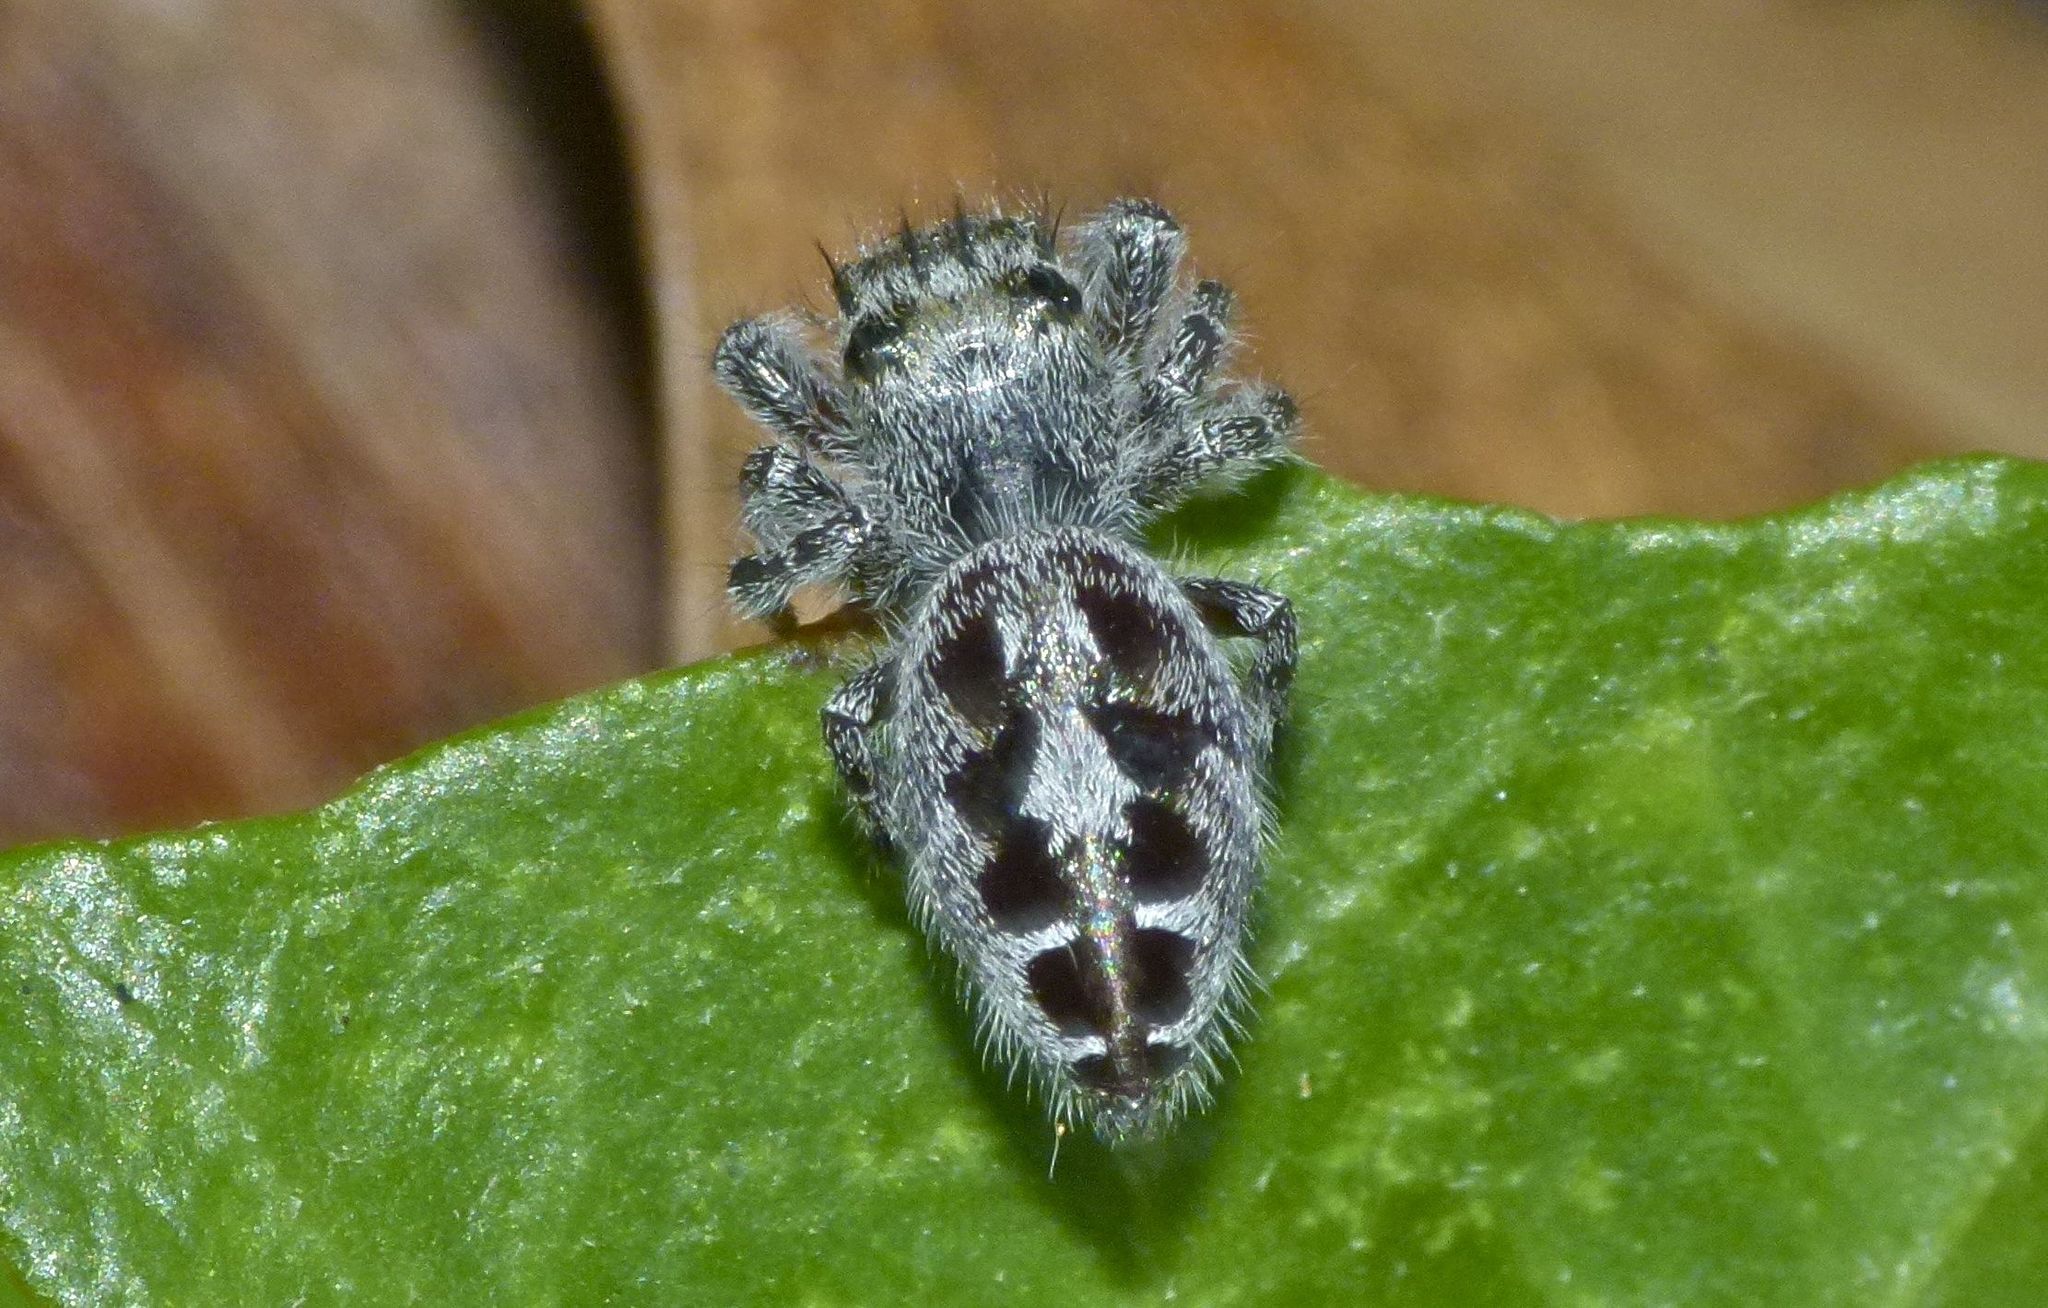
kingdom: Animalia
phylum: Arthropoda
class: Arachnida
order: Araneae
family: Salticidae
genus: Phidippus
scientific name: Phidippus putnami
